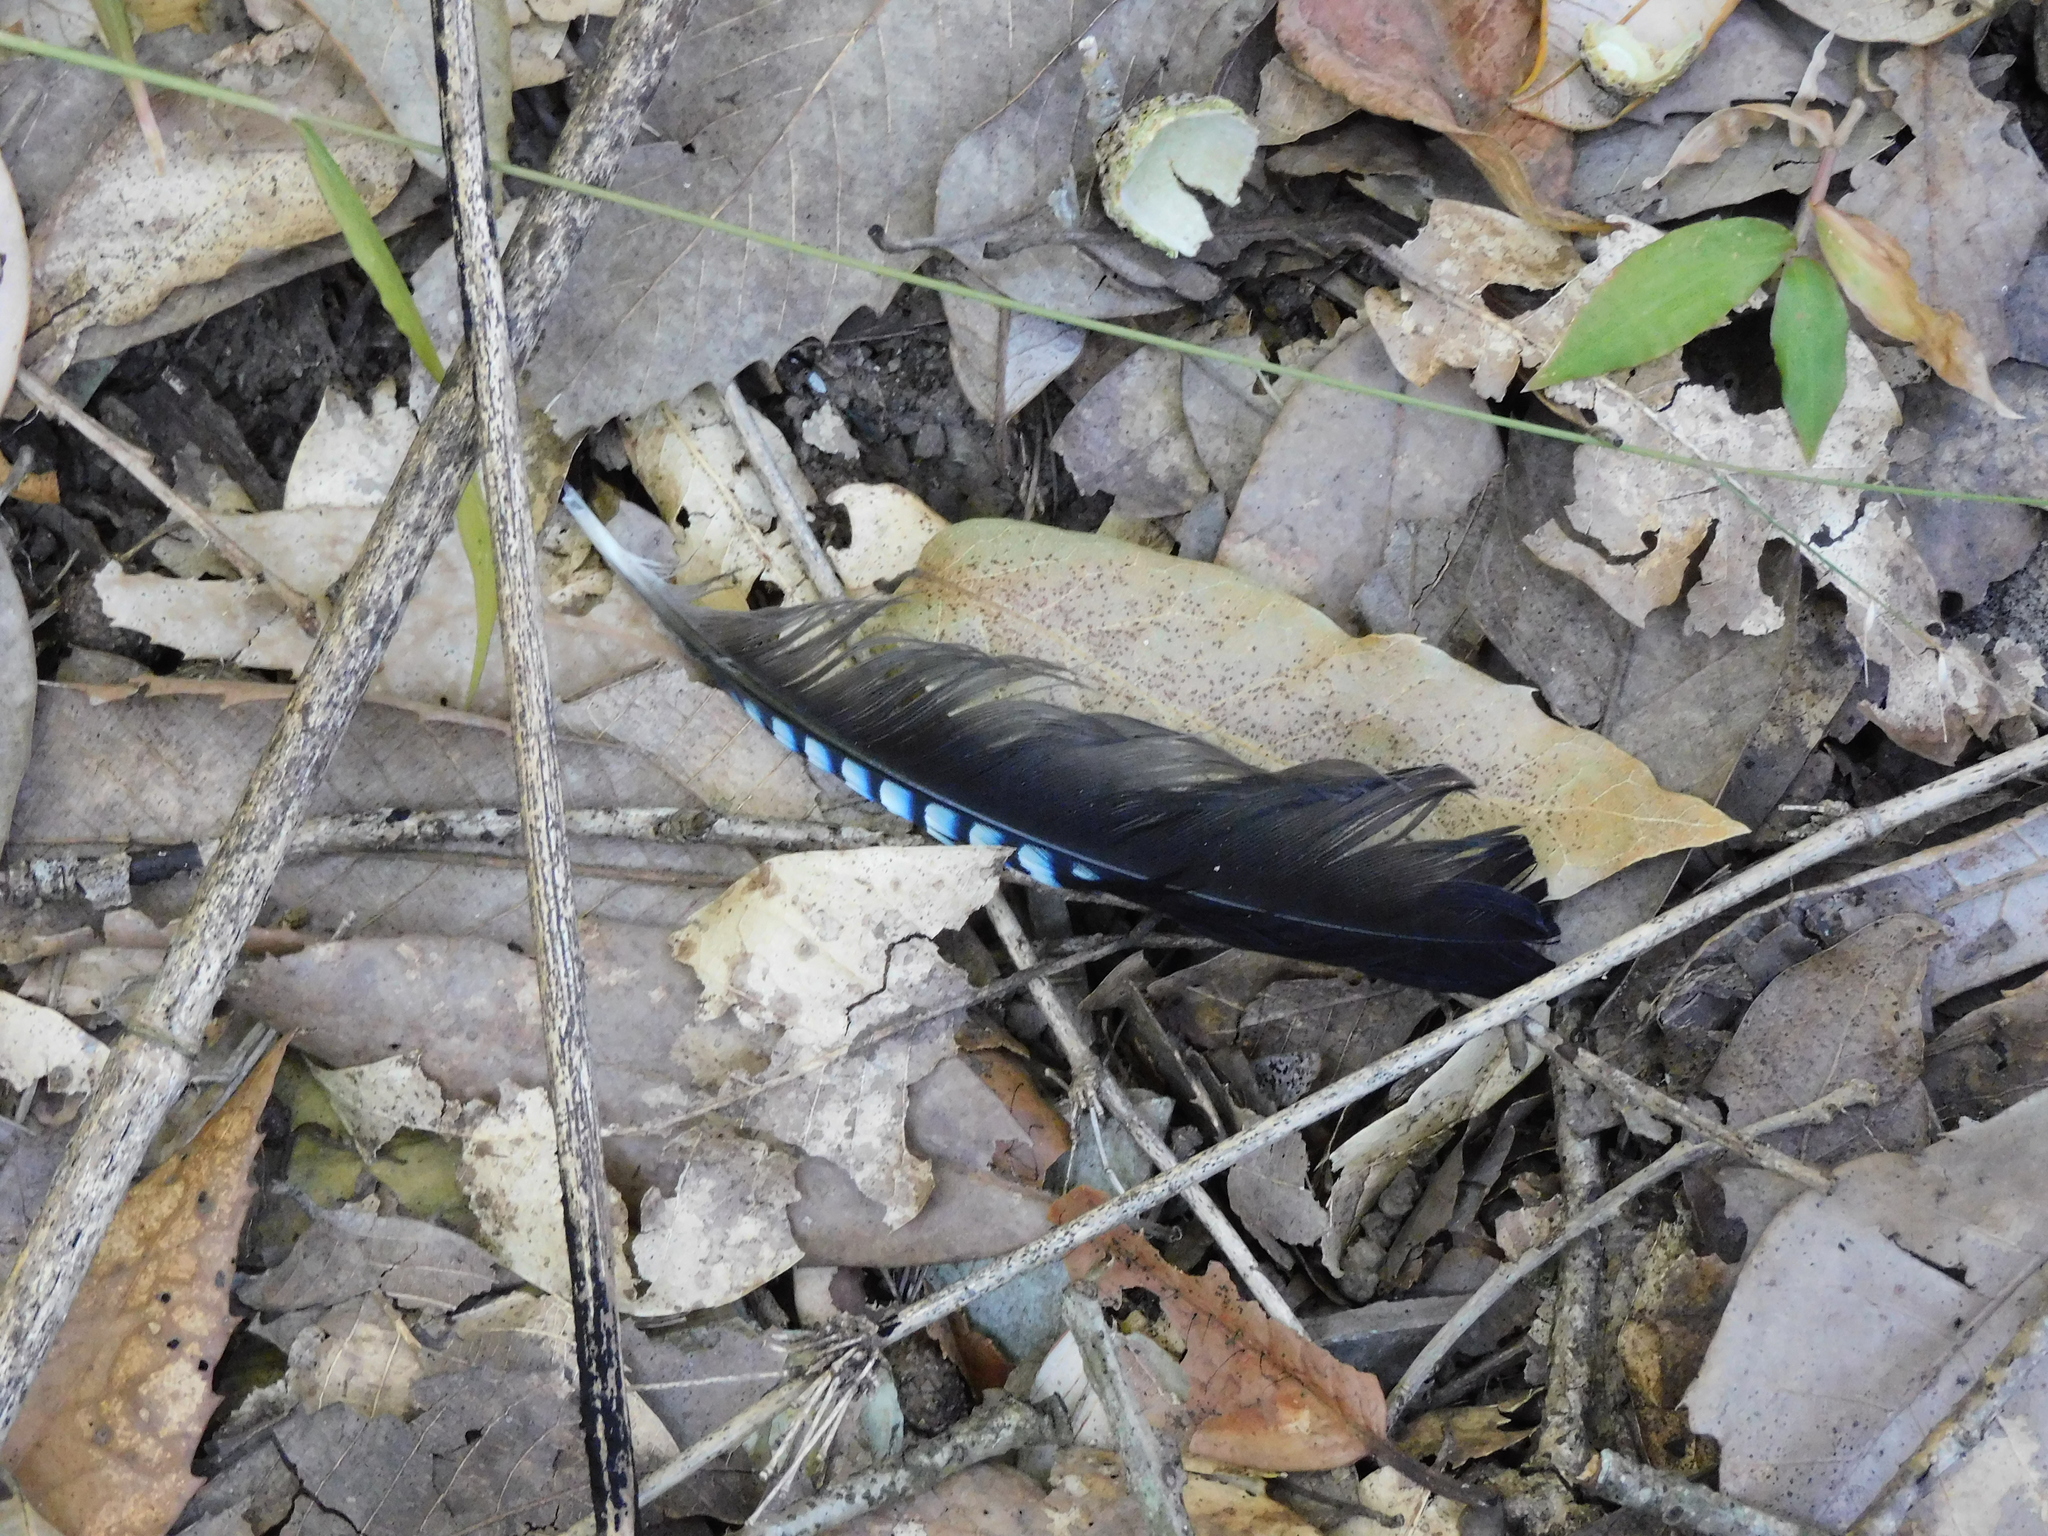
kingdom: Animalia
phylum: Chordata
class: Aves
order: Passeriformes
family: Corvidae
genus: Garrulus
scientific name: Garrulus glandarius
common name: Eurasian jay
